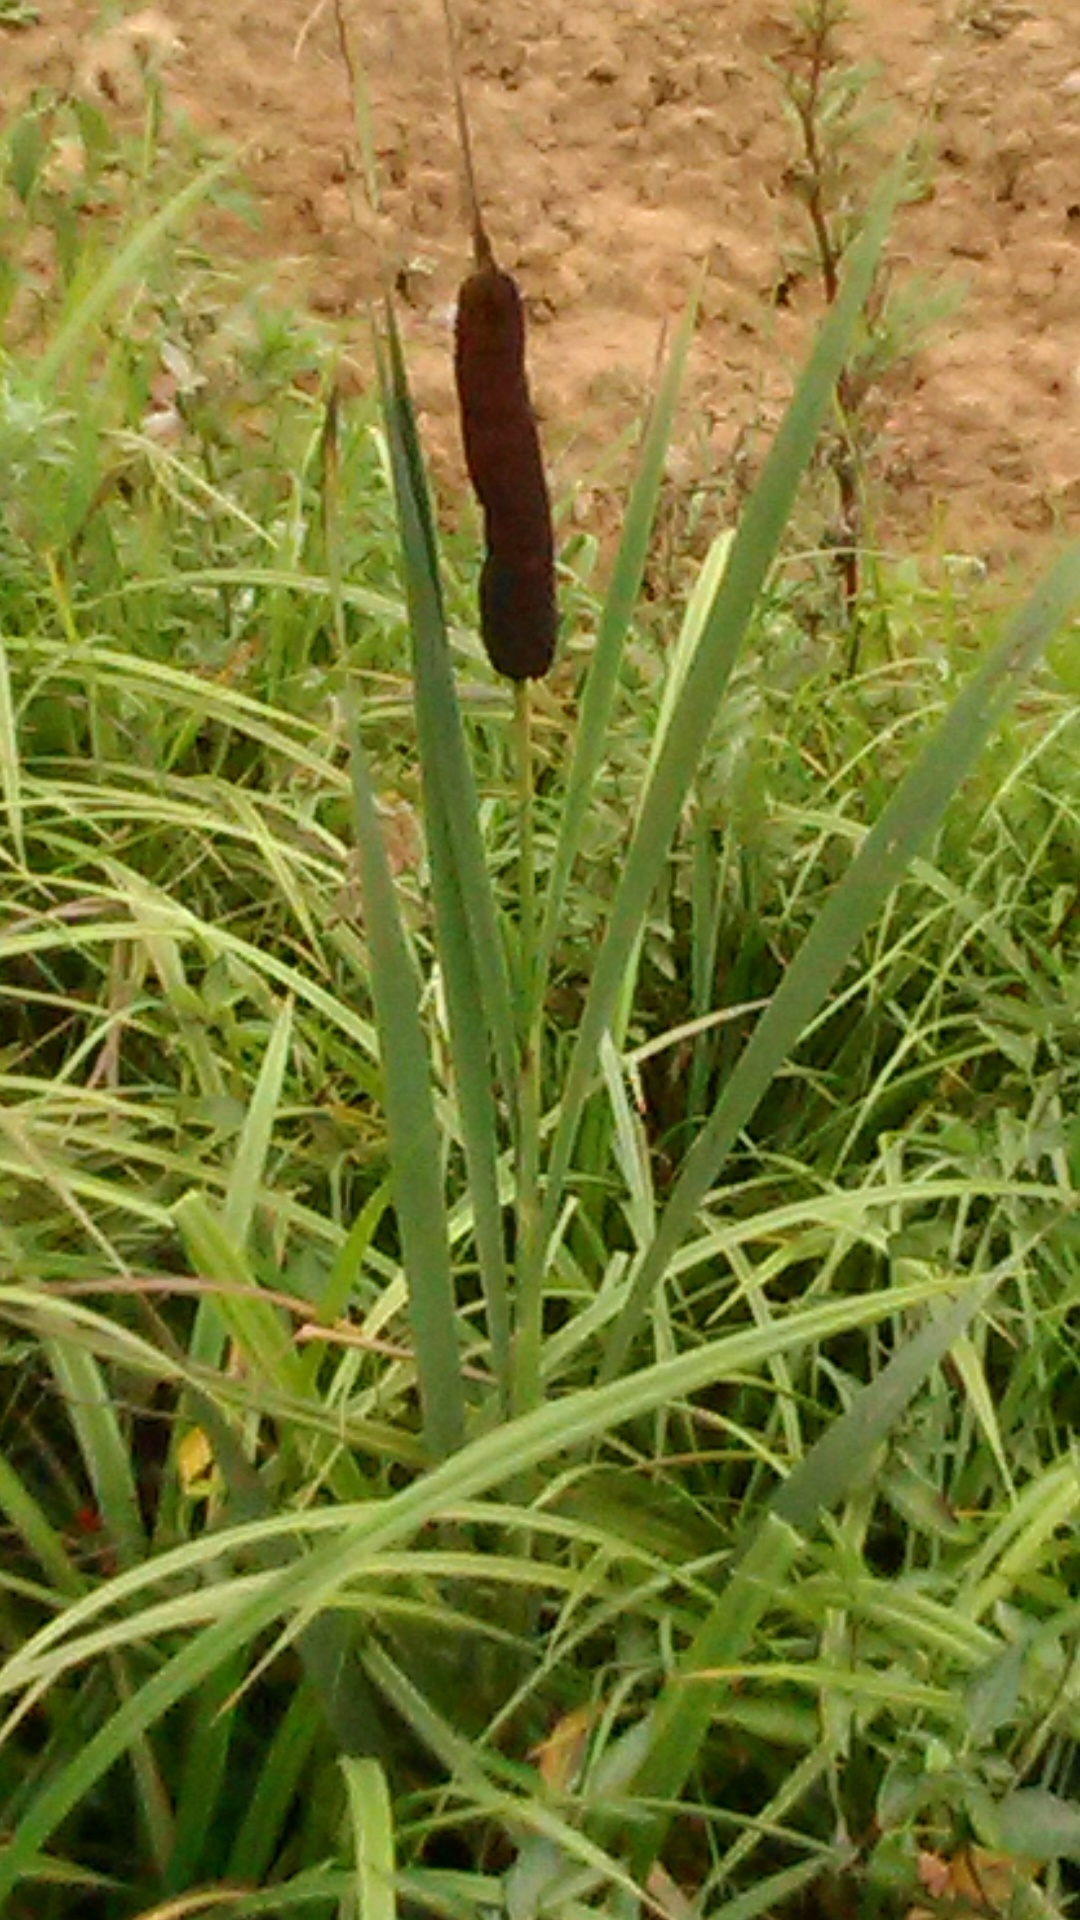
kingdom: Plantae
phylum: Tracheophyta
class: Liliopsida
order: Poales
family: Typhaceae
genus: Typha
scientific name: Typha latifolia
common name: Broadleaf cattail
